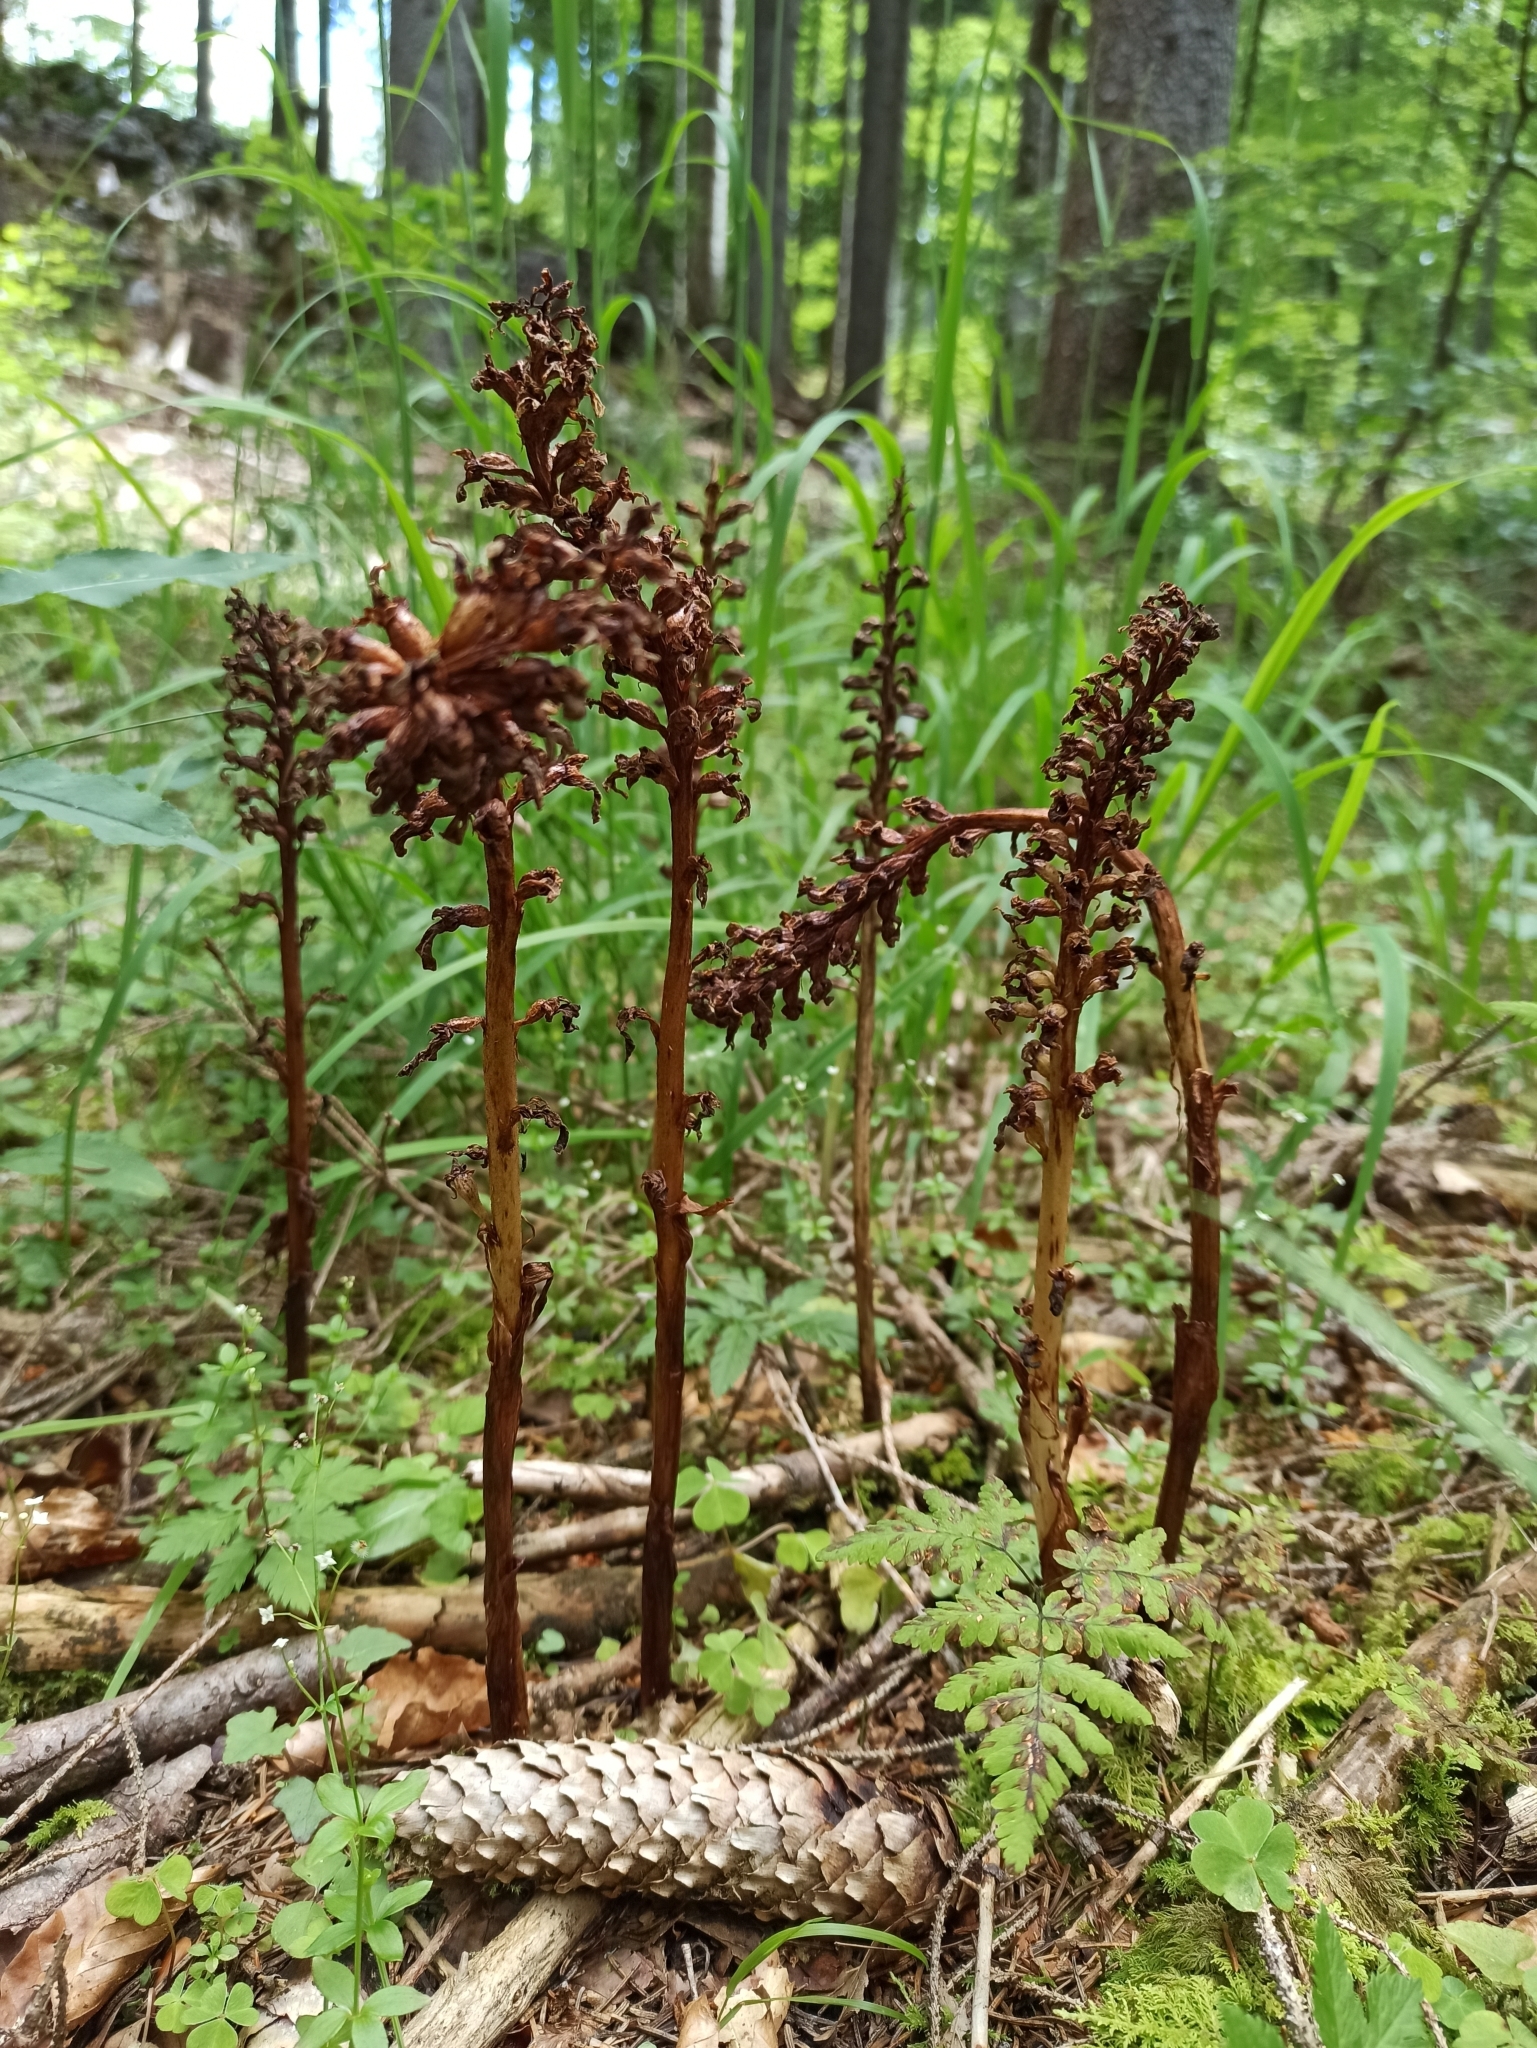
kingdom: Plantae
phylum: Tracheophyta
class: Liliopsida
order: Asparagales
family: Orchidaceae
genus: Neottia
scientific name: Neottia nidus-avis
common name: Bird's-nest orchid
